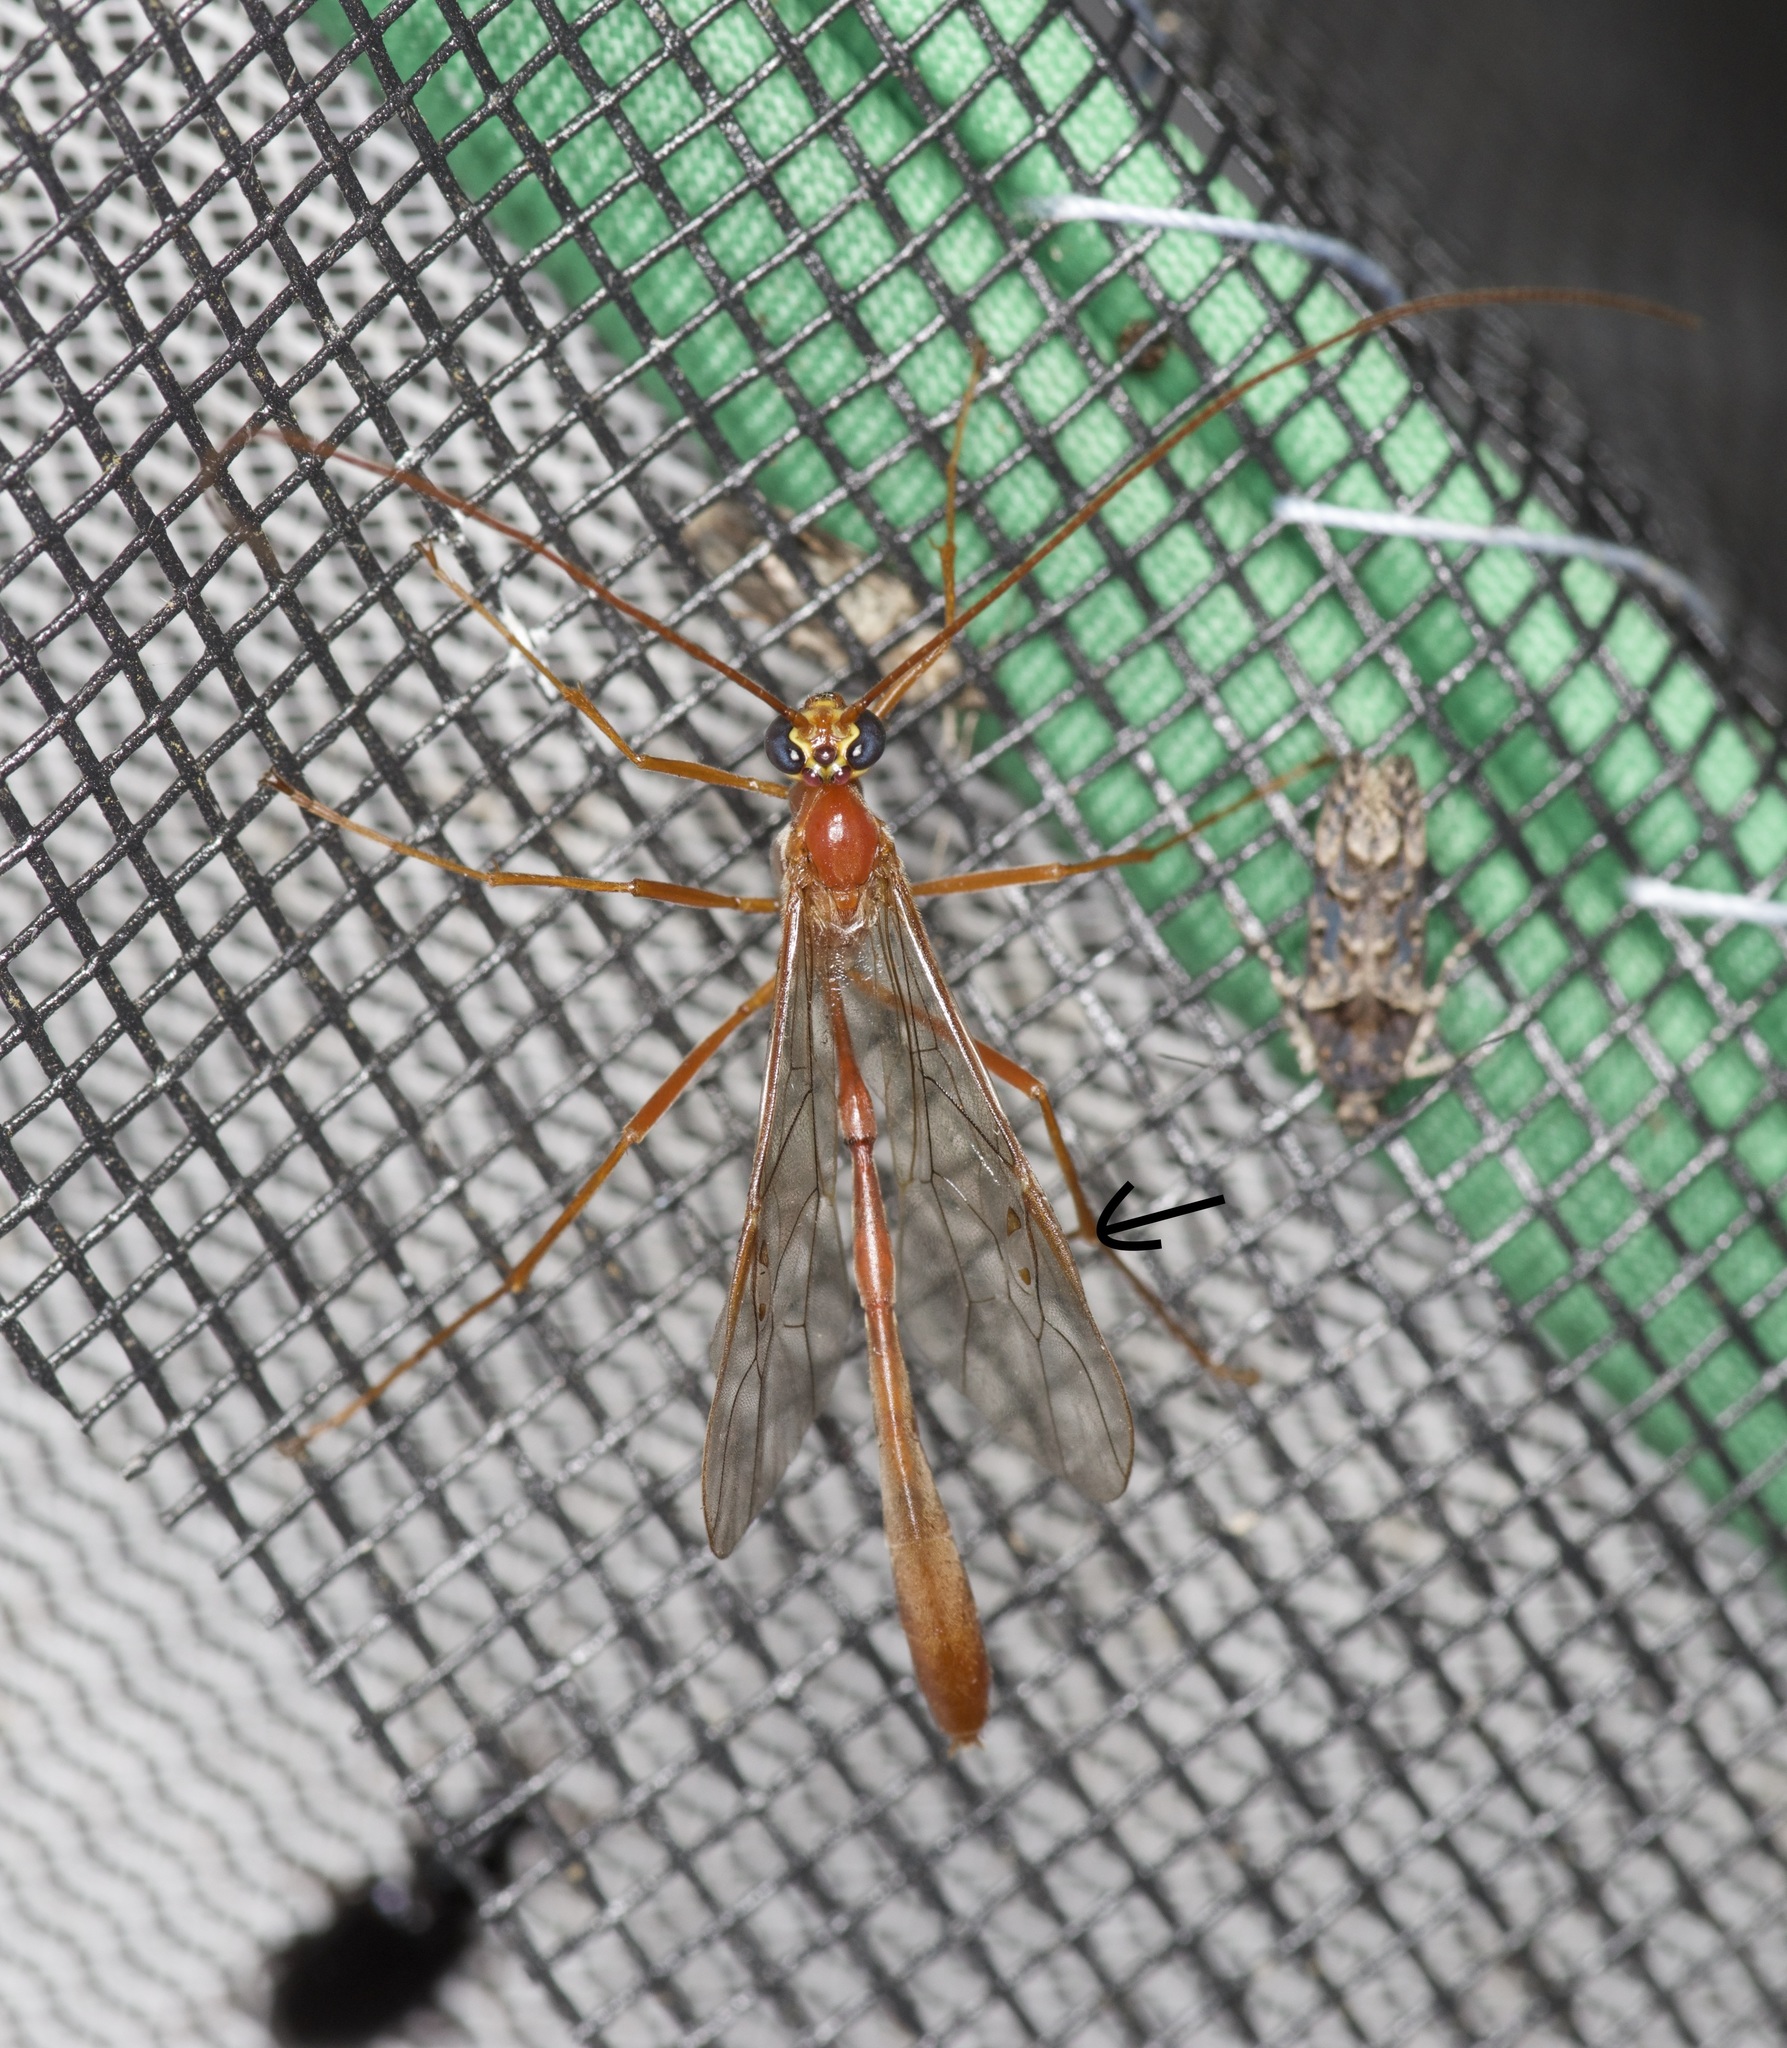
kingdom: Animalia
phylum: Arthropoda
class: Insecta
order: Hymenoptera
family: Ichneumonidae
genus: Enicospilus
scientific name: Enicospilus purgatus
